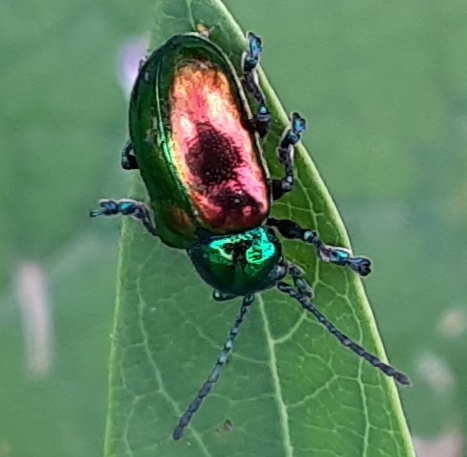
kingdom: Animalia
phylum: Arthropoda
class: Insecta
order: Coleoptera
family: Chrysomelidae
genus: Chrysochus
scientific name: Chrysochus auratus
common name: Dogbane leaf beetle
